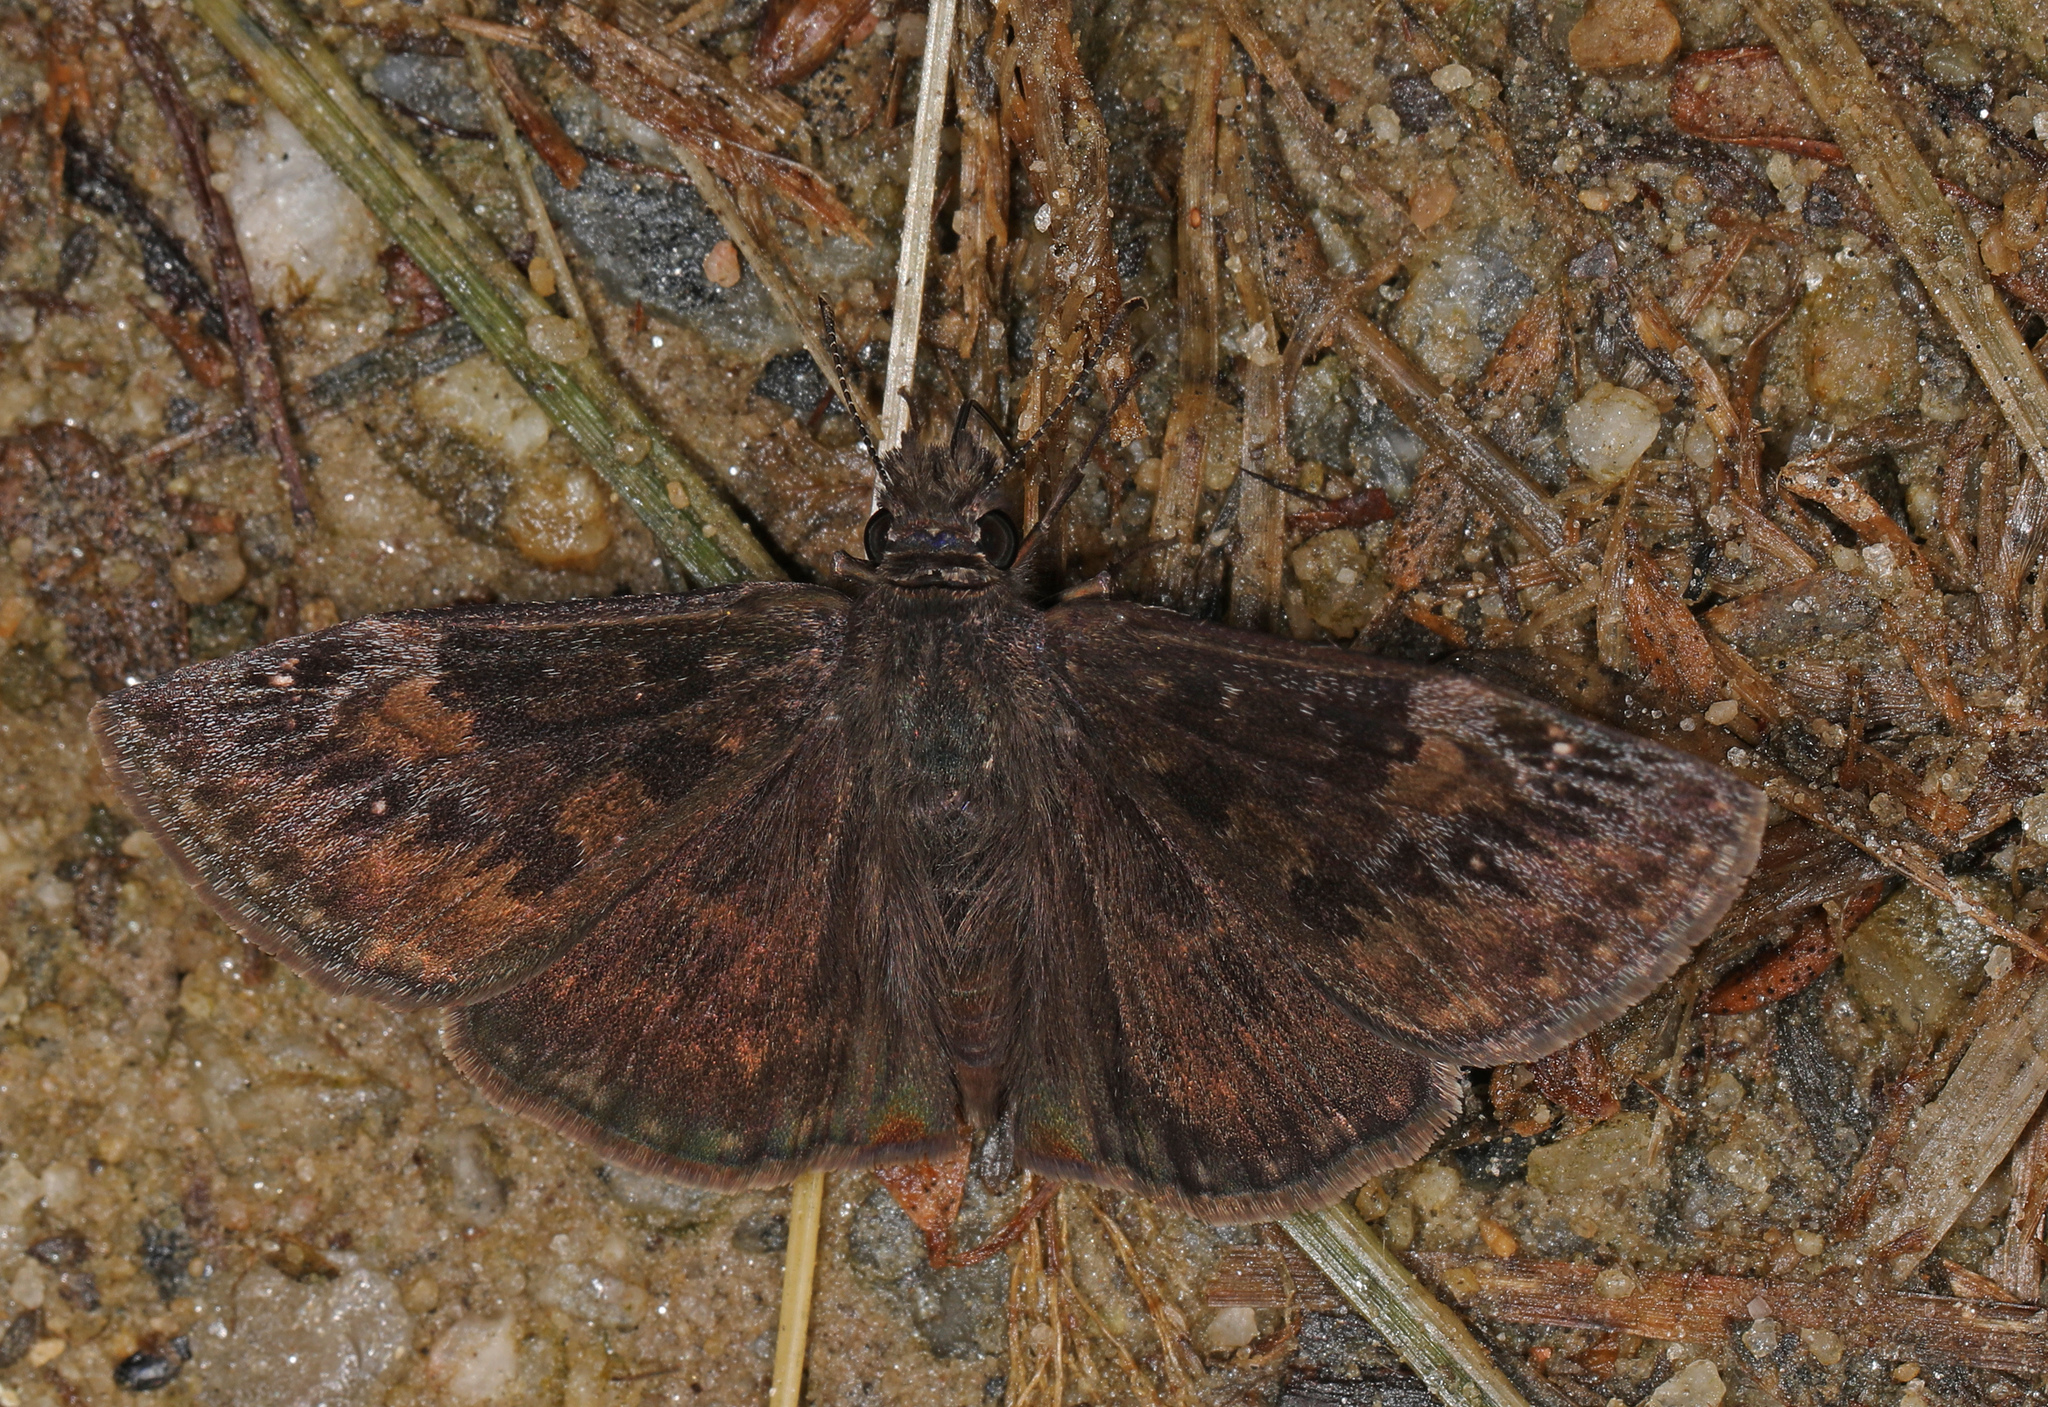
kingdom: Animalia
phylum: Arthropoda
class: Insecta
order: Lepidoptera
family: Hesperiidae
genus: Erynnis
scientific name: Erynnis baptisiae
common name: Wild indigo duskywing
